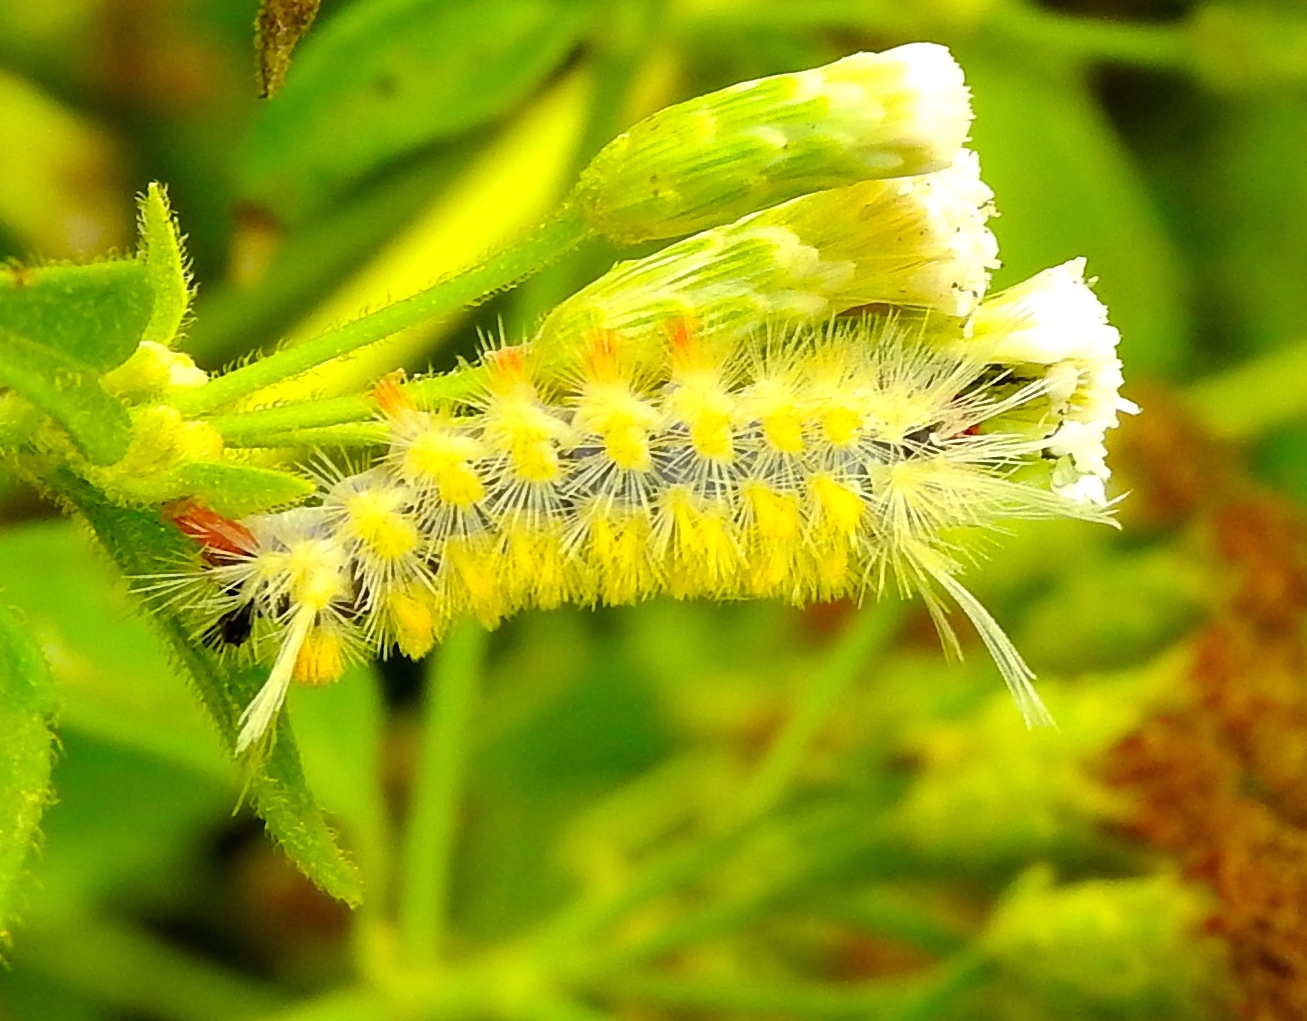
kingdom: Animalia
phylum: Arthropoda
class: Insecta
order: Lepidoptera
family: Lymantriidae
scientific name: Lymantriidae
